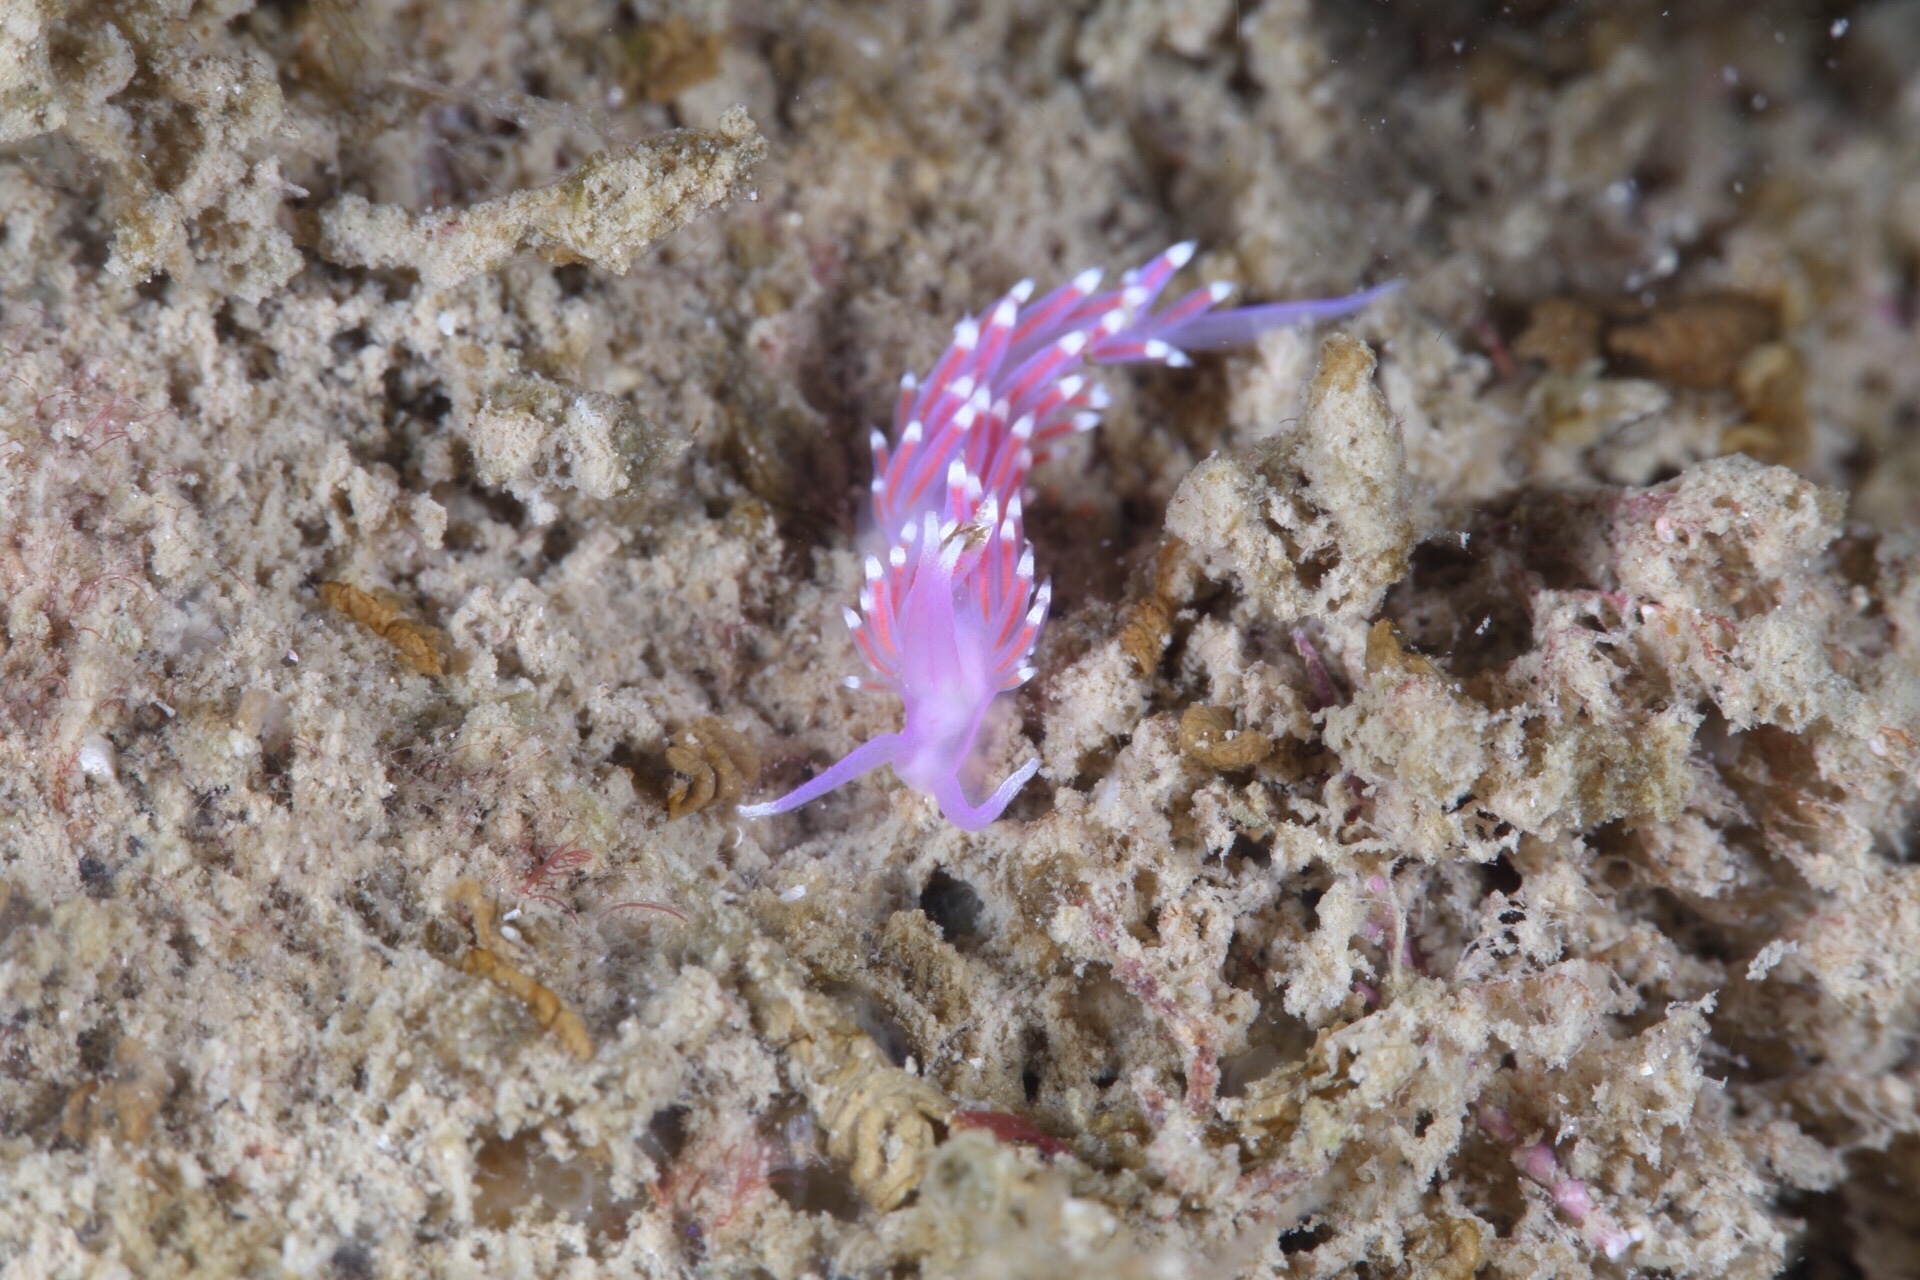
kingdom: Animalia
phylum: Mollusca
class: Gastropoda
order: Nudibranchia
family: Flabellinidae
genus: Edmundsella
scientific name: Edmundsella pedata
